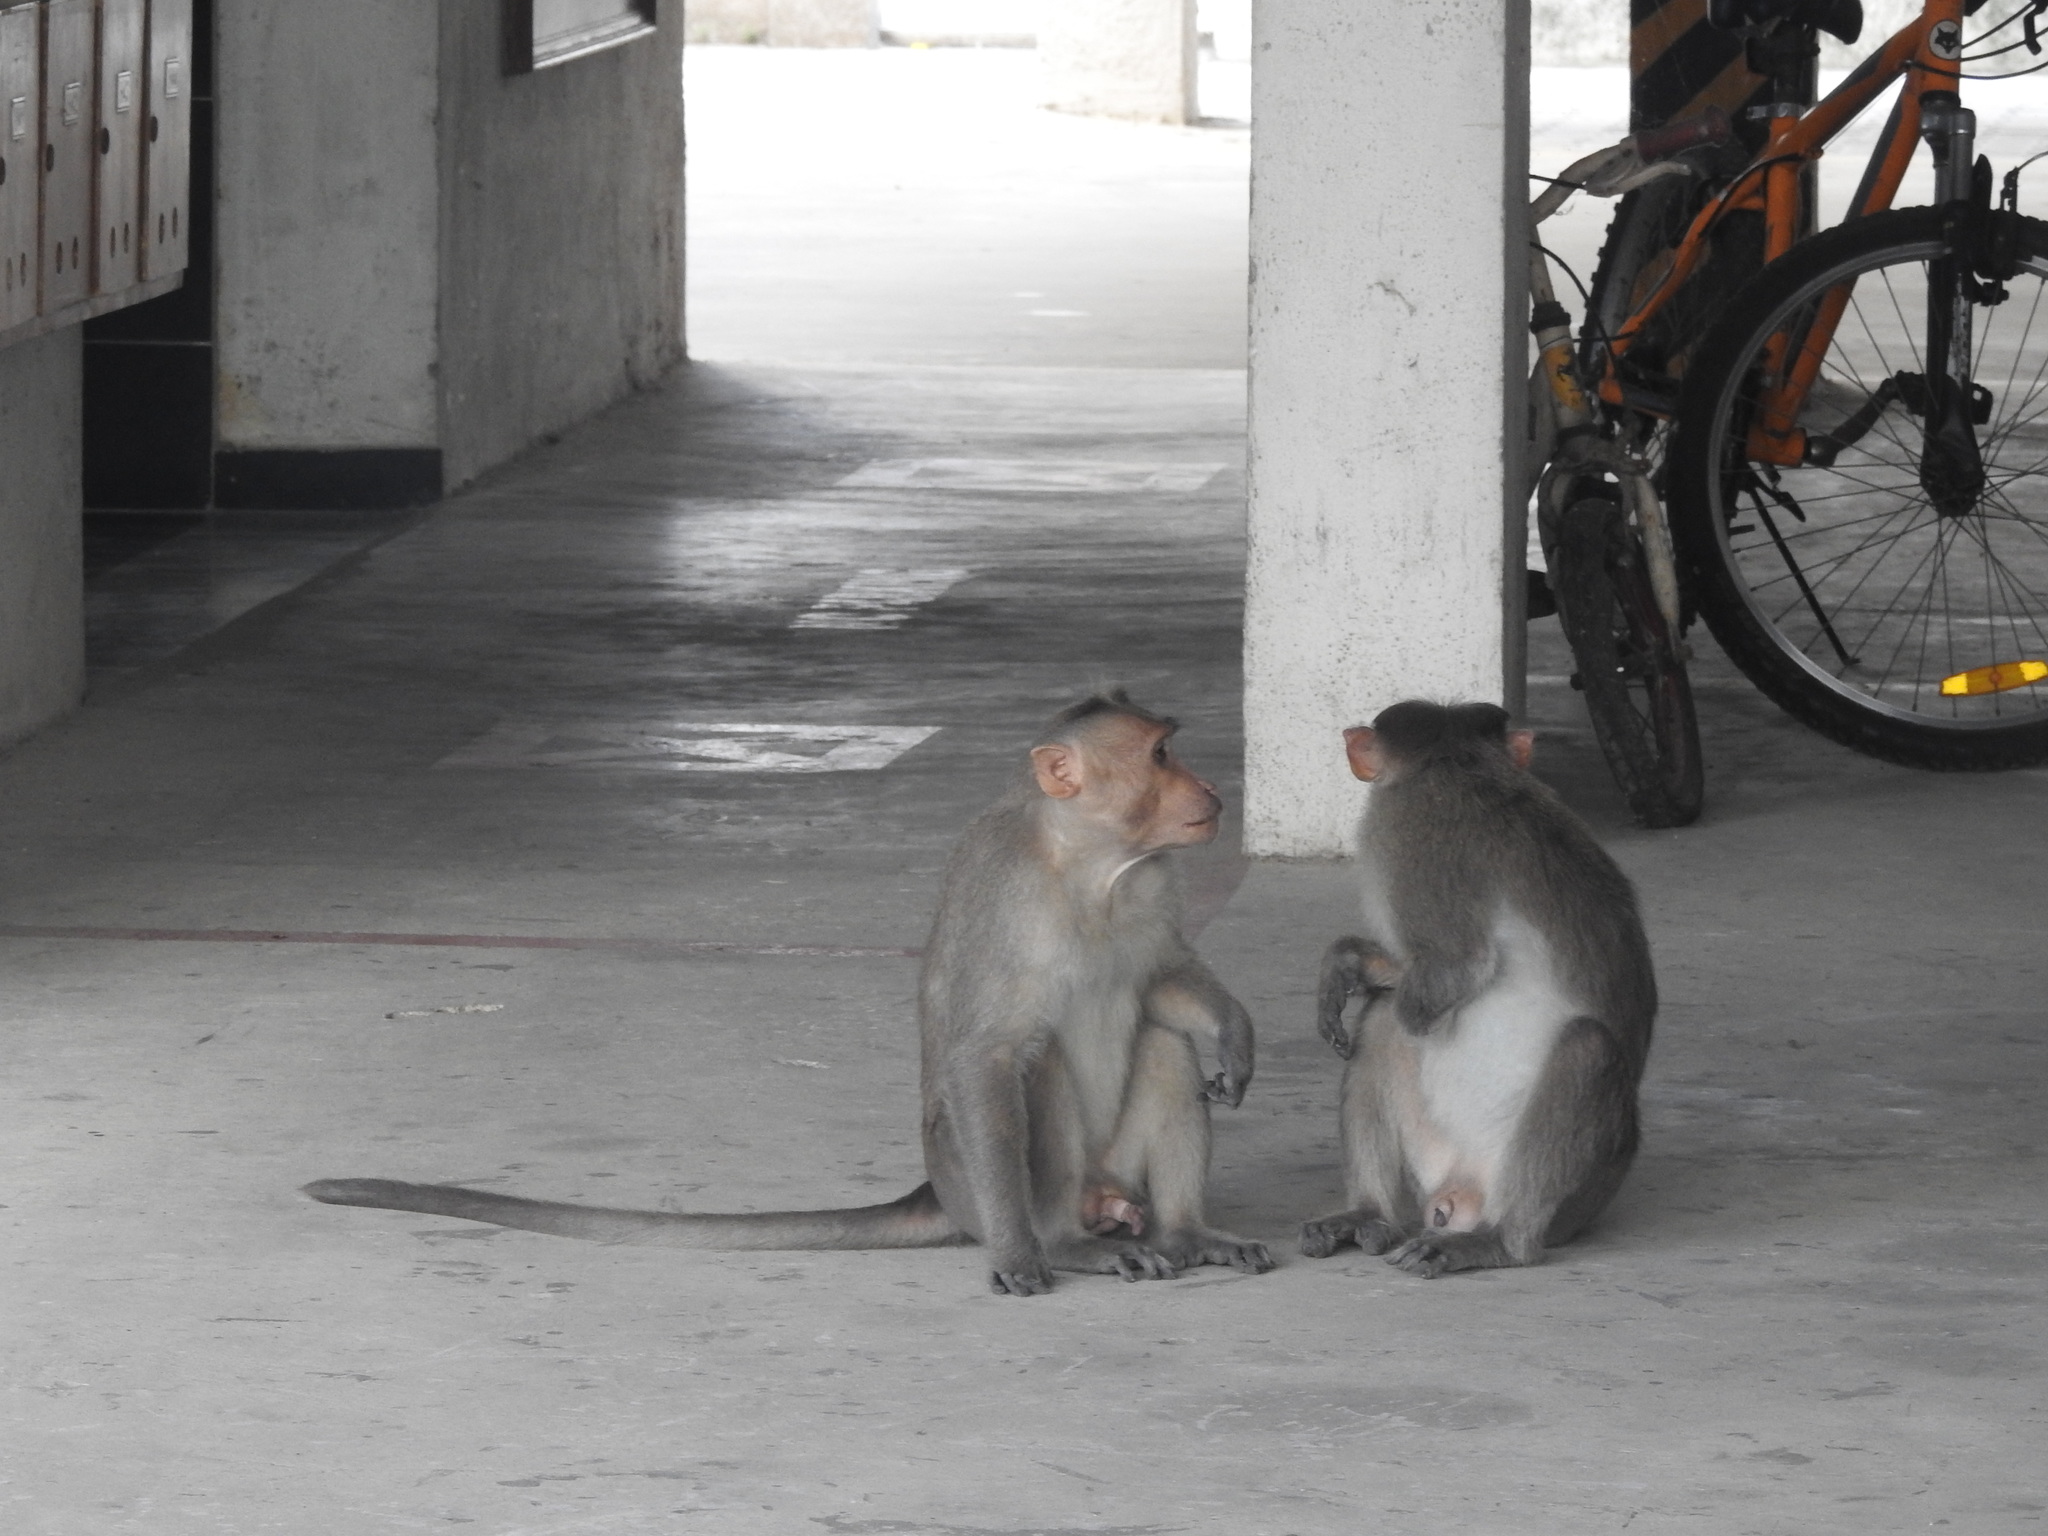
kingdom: Animalia
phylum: Chordata
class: Mammalia
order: Primates
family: Cercopithecidae
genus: Macaca
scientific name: Macaca radiata
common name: Bonnet macaque
